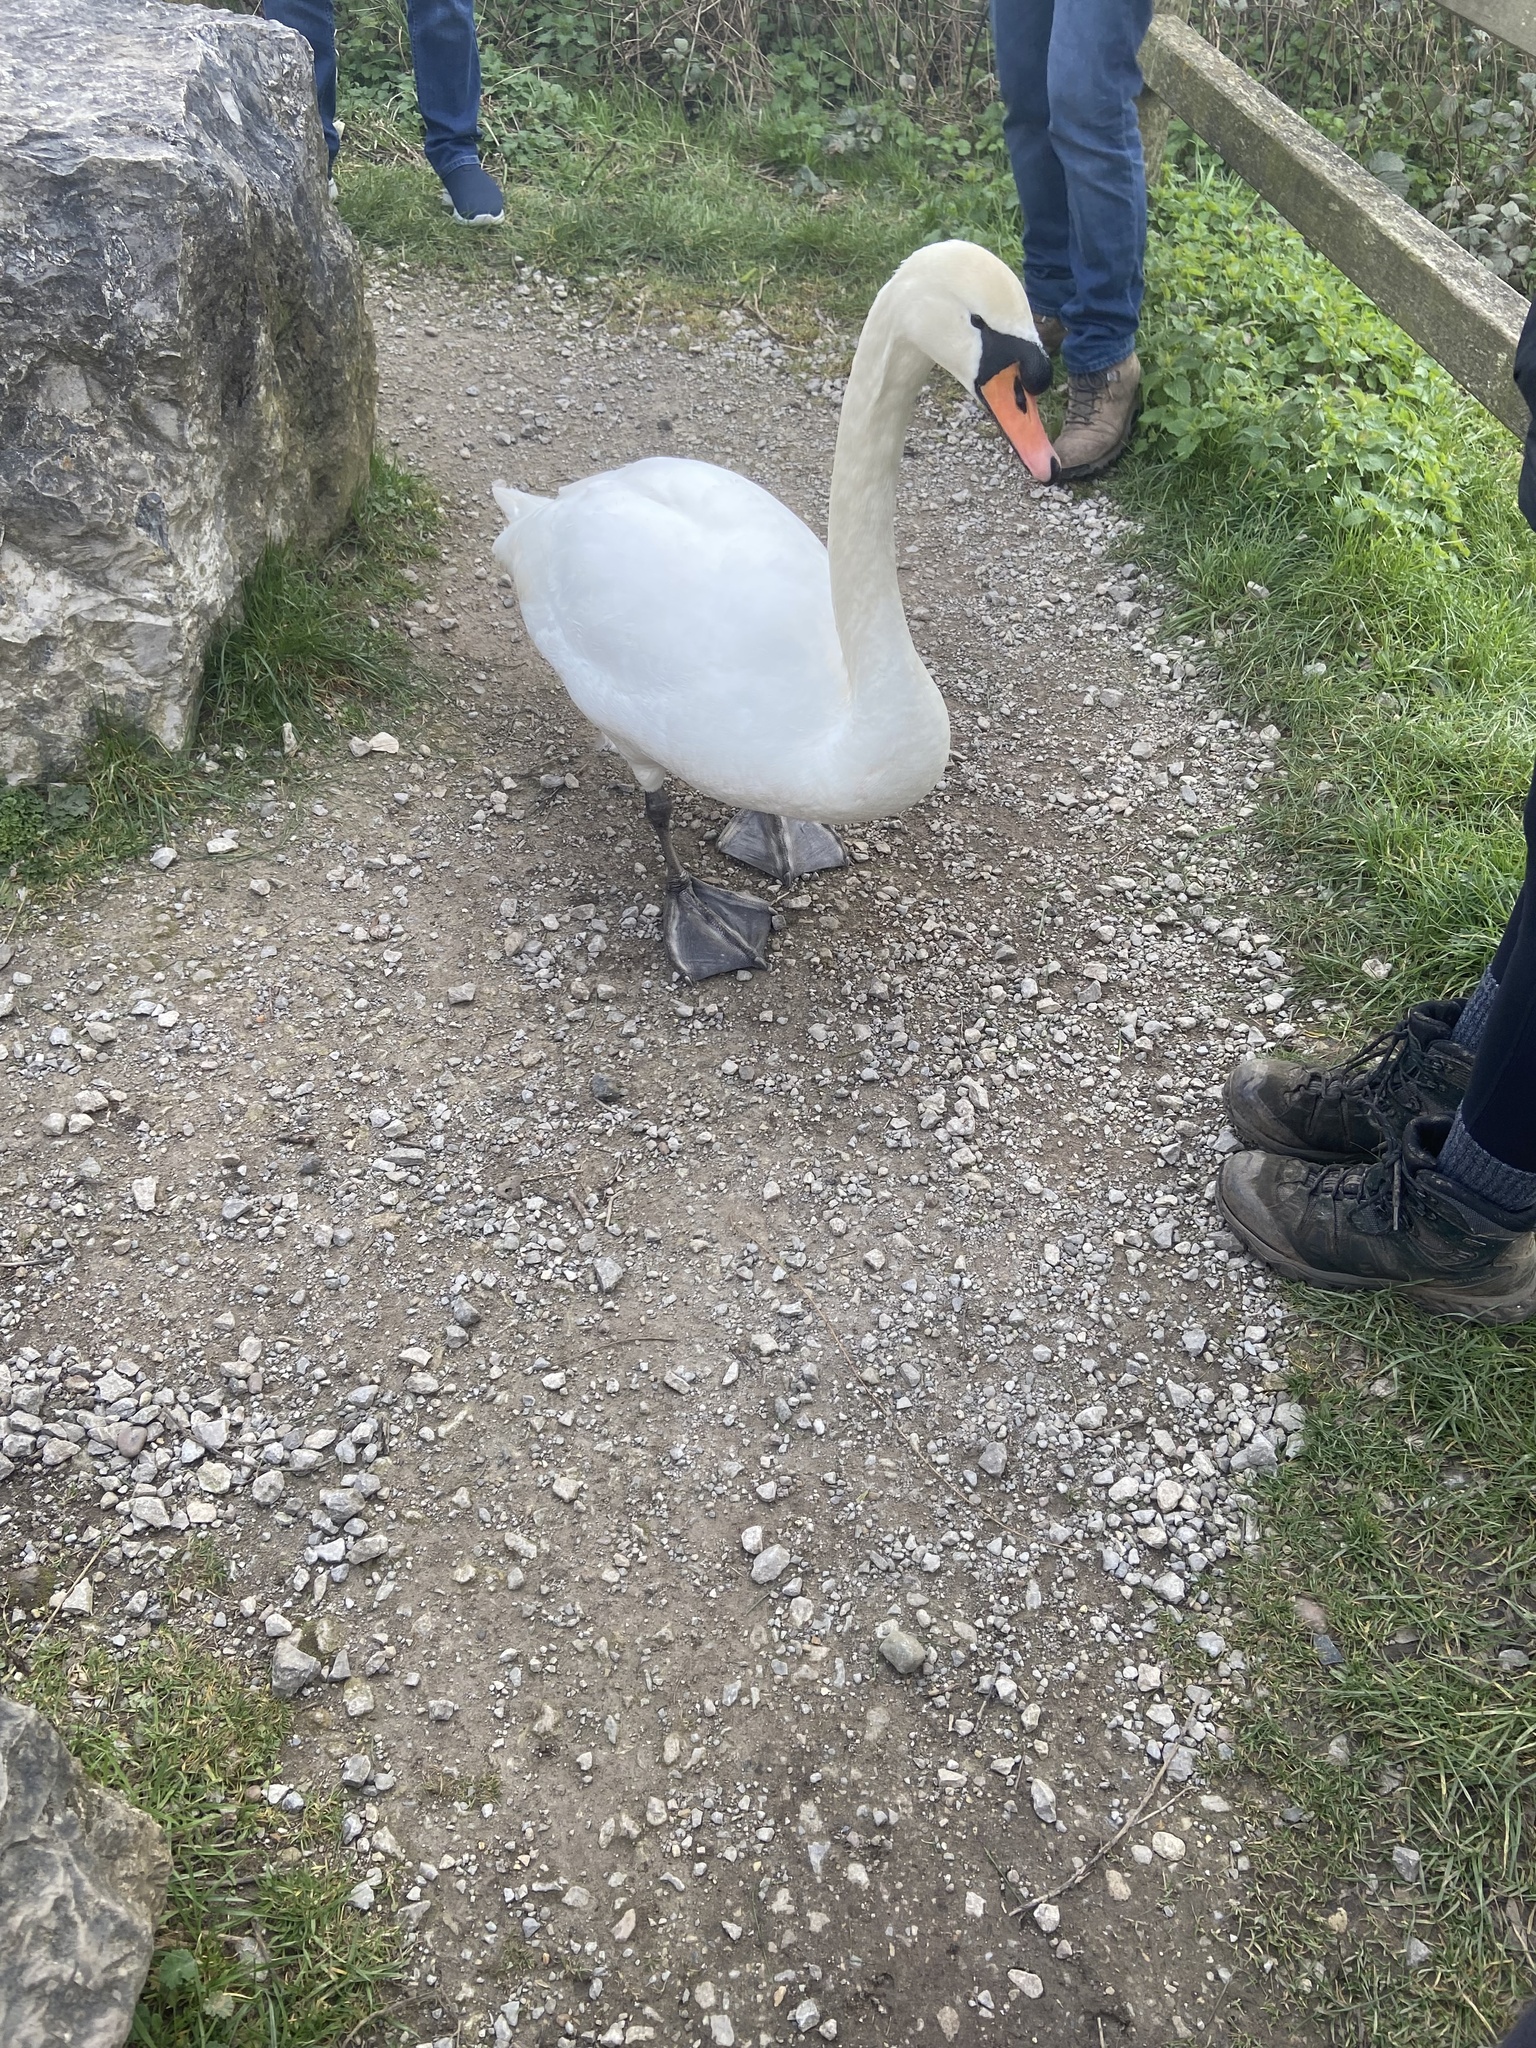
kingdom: Animalia
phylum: Chordata
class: Aves
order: Anseriformes
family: Anatidae
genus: Cygnus
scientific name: Cygnus olor
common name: Mute swan
